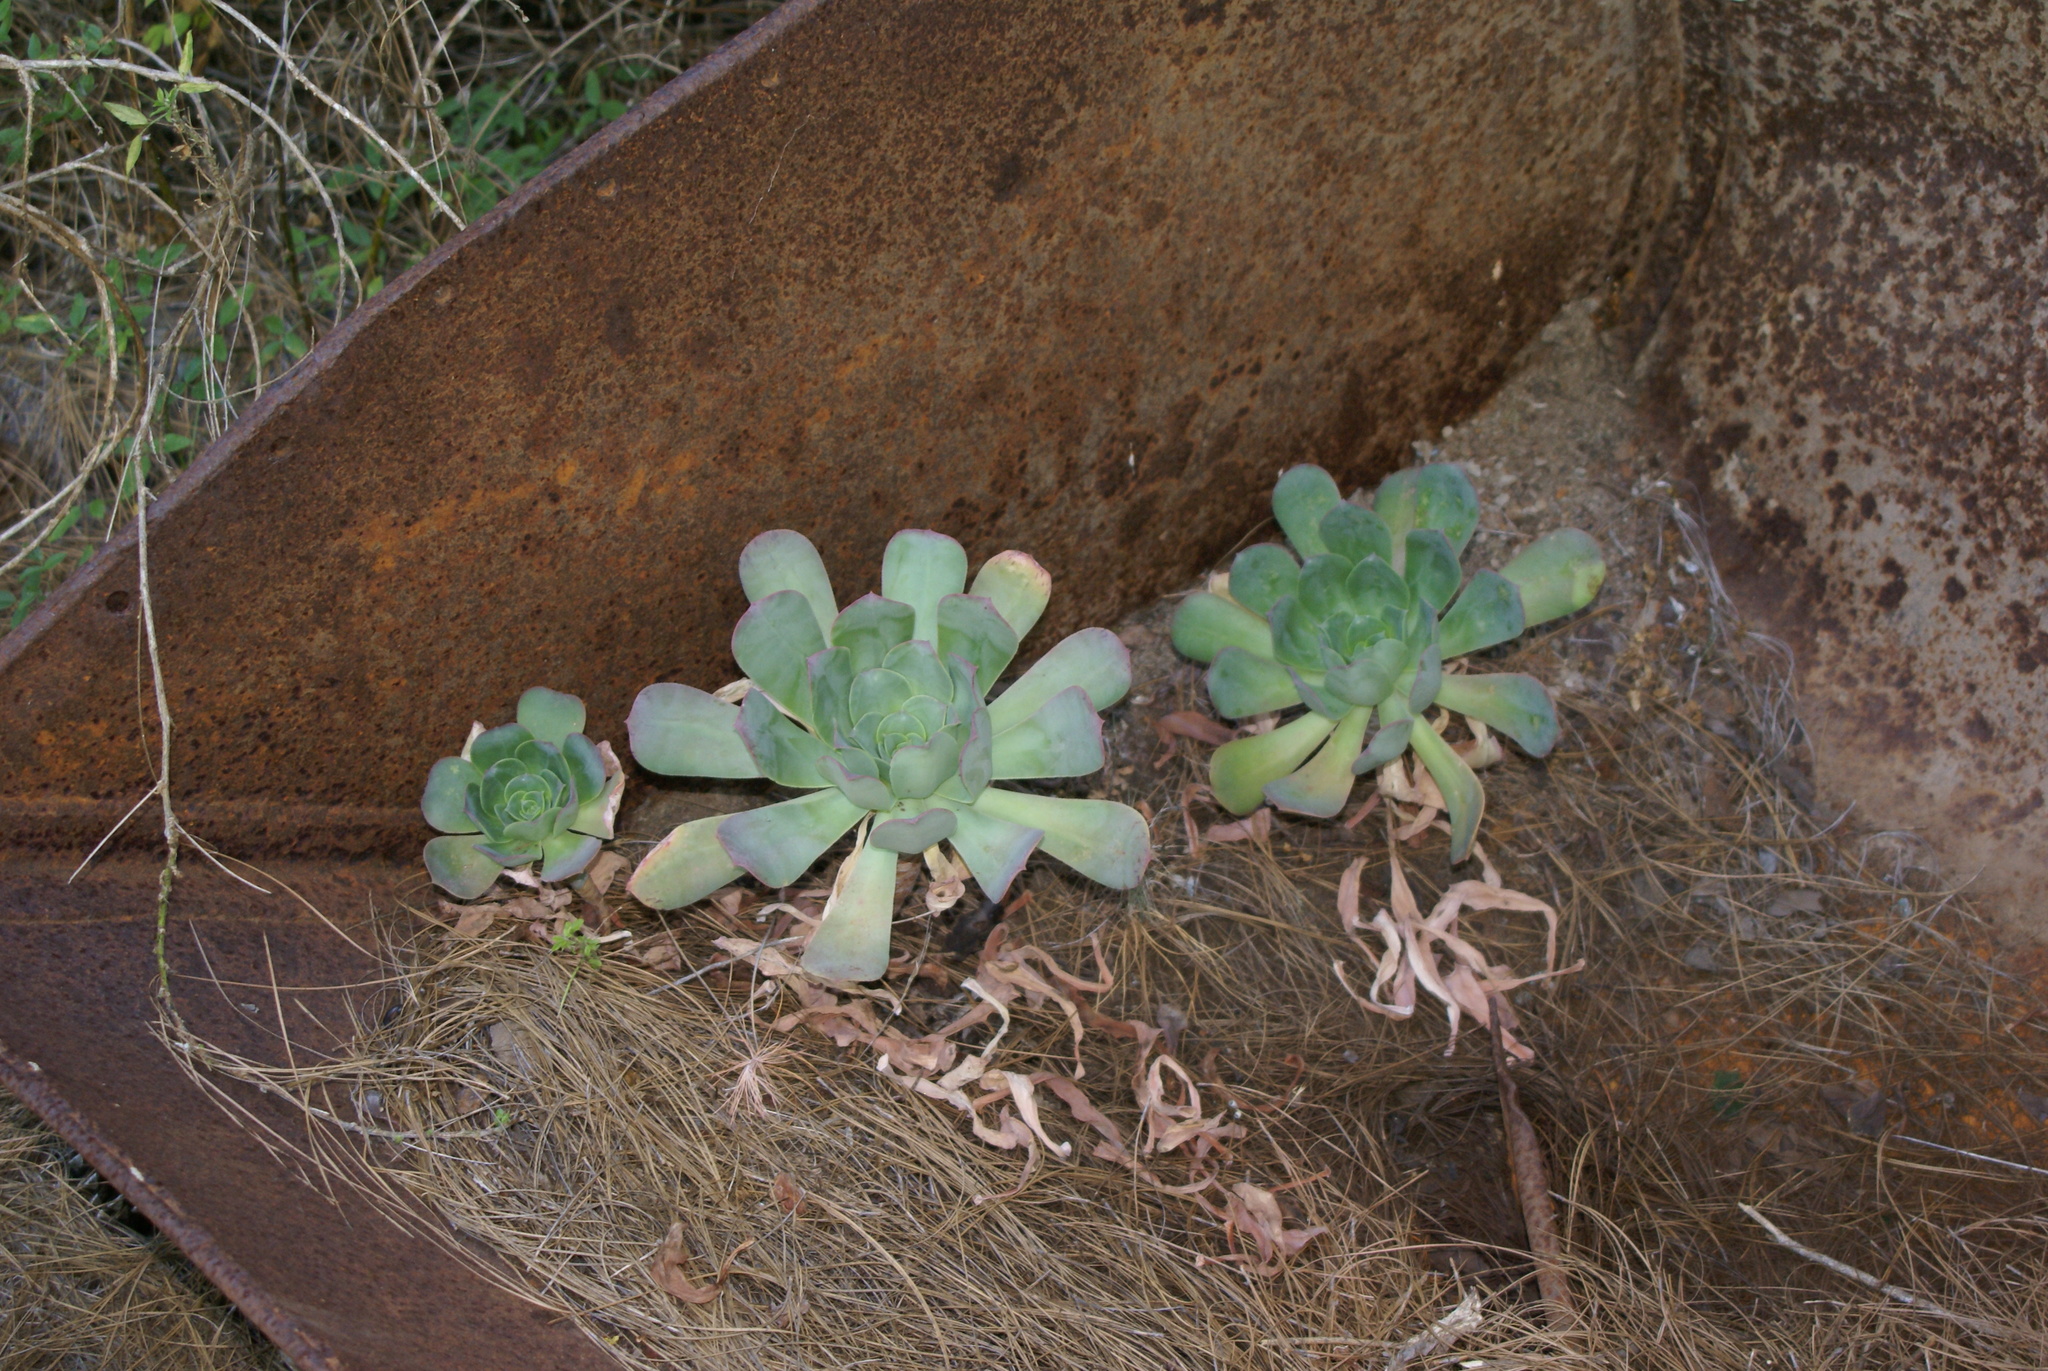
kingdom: Plantae
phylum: Tracheophyta
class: Magnoliopsida
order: Saxifragales
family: Crassulaceae
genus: Aeonium
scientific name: Aeonium davidbramwellii
